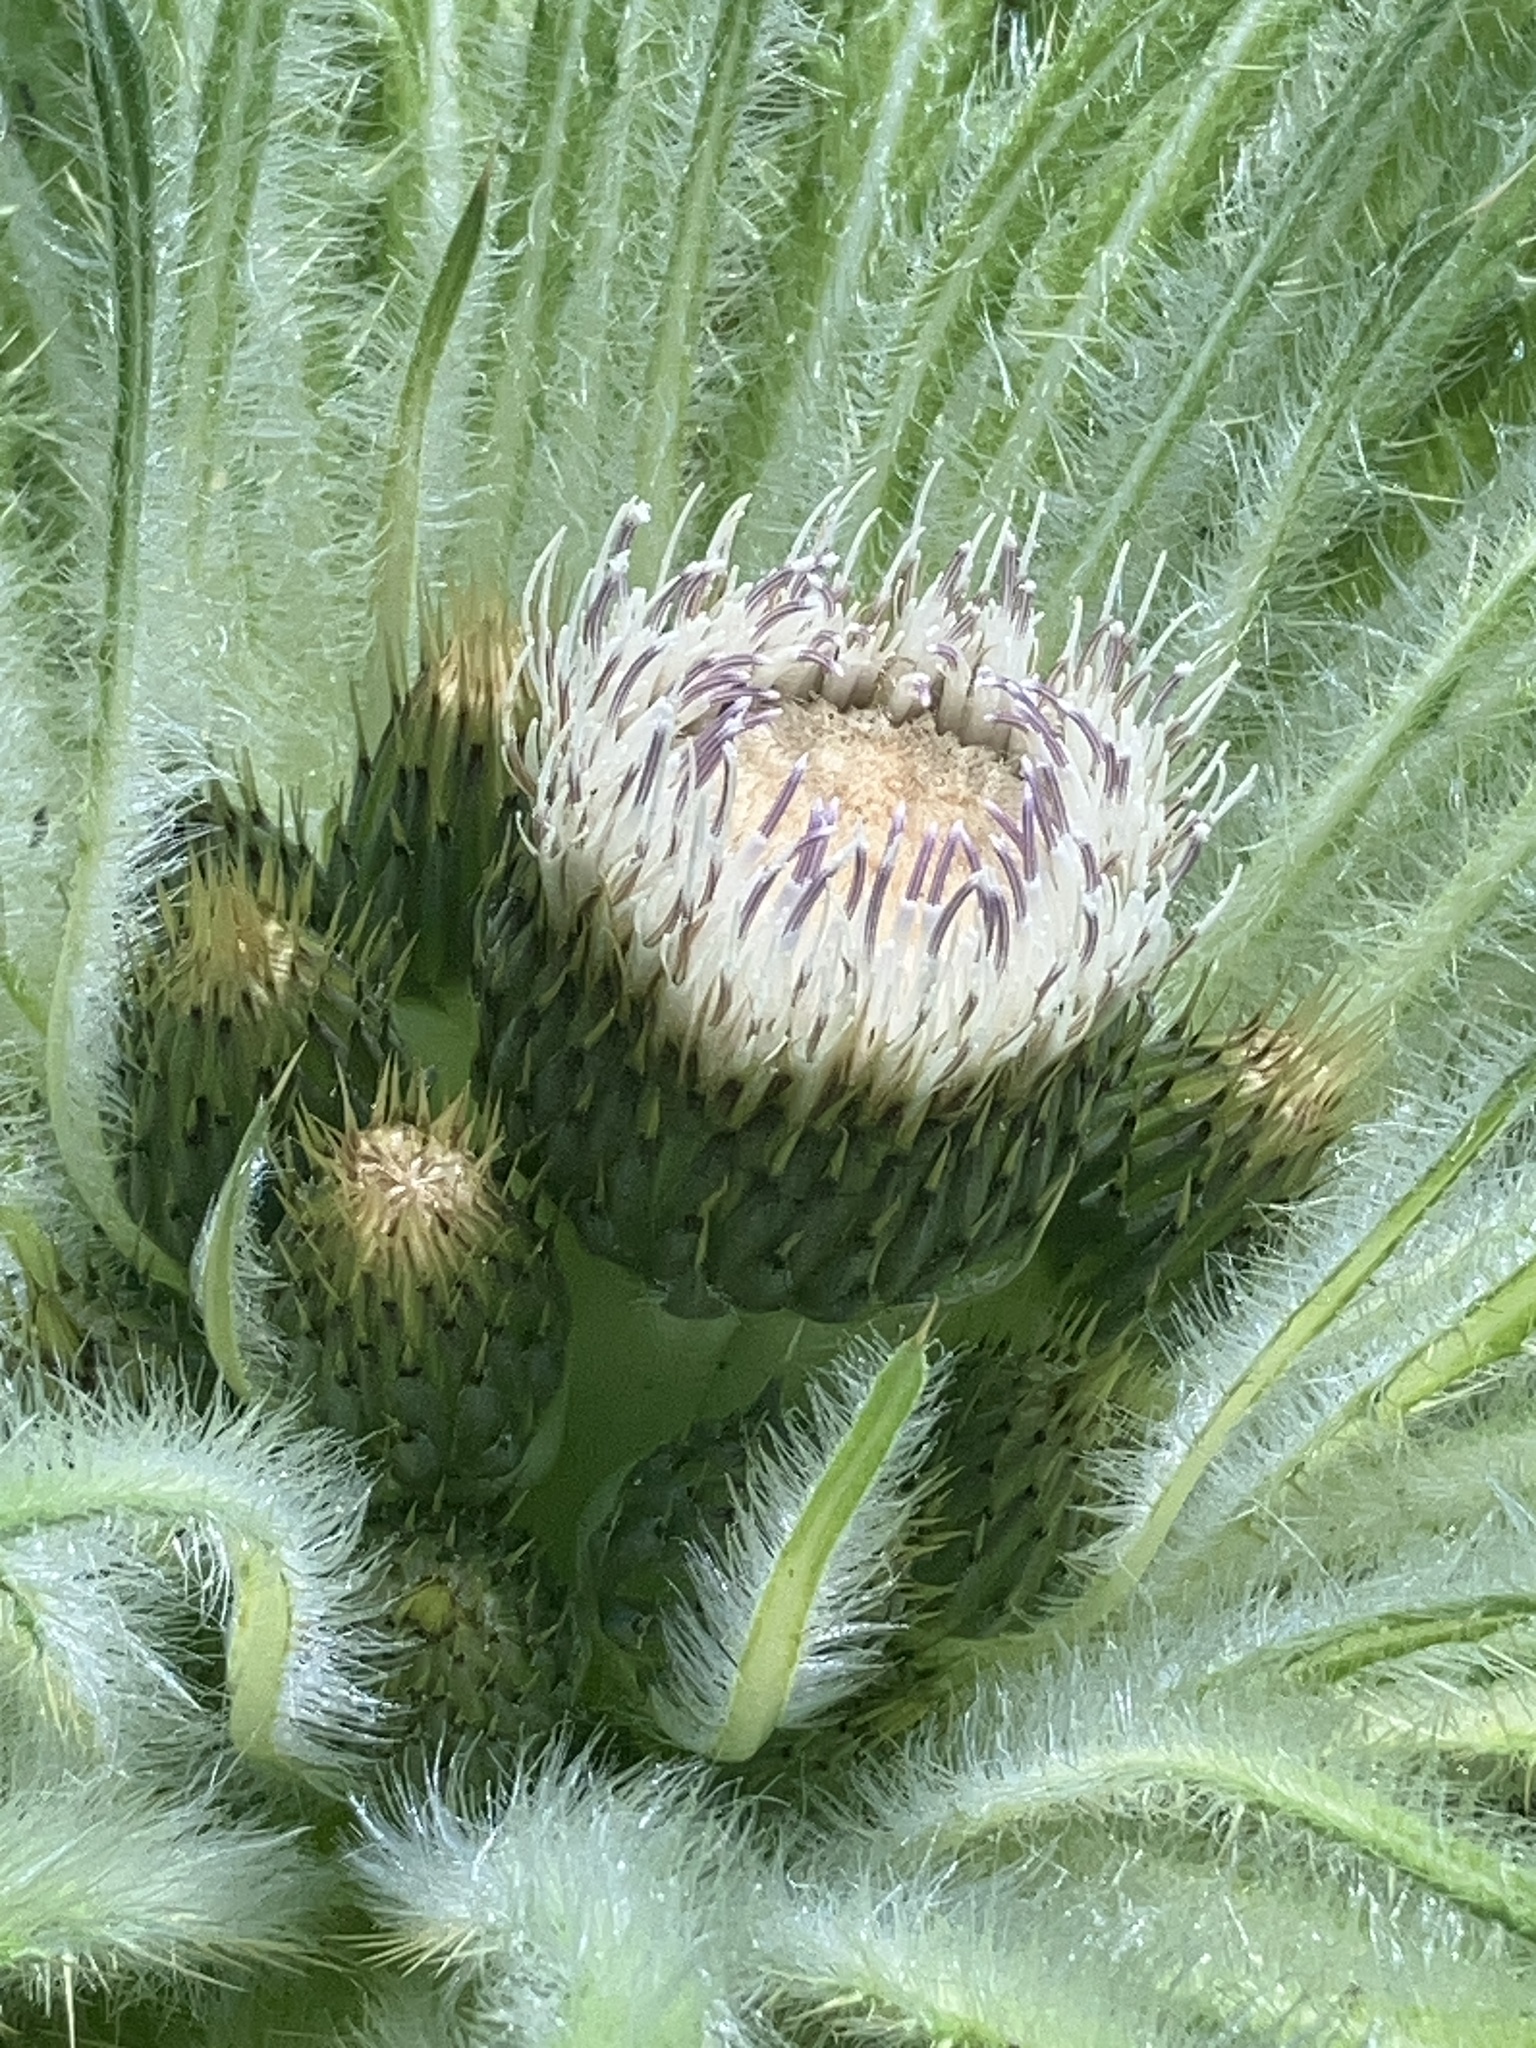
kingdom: Plantae
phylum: Tracheophyta
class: Magnoliopsida
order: Asterales
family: Asteraceae
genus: Cirsium
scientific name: Cirsium scariosum
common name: Meadow thistle
